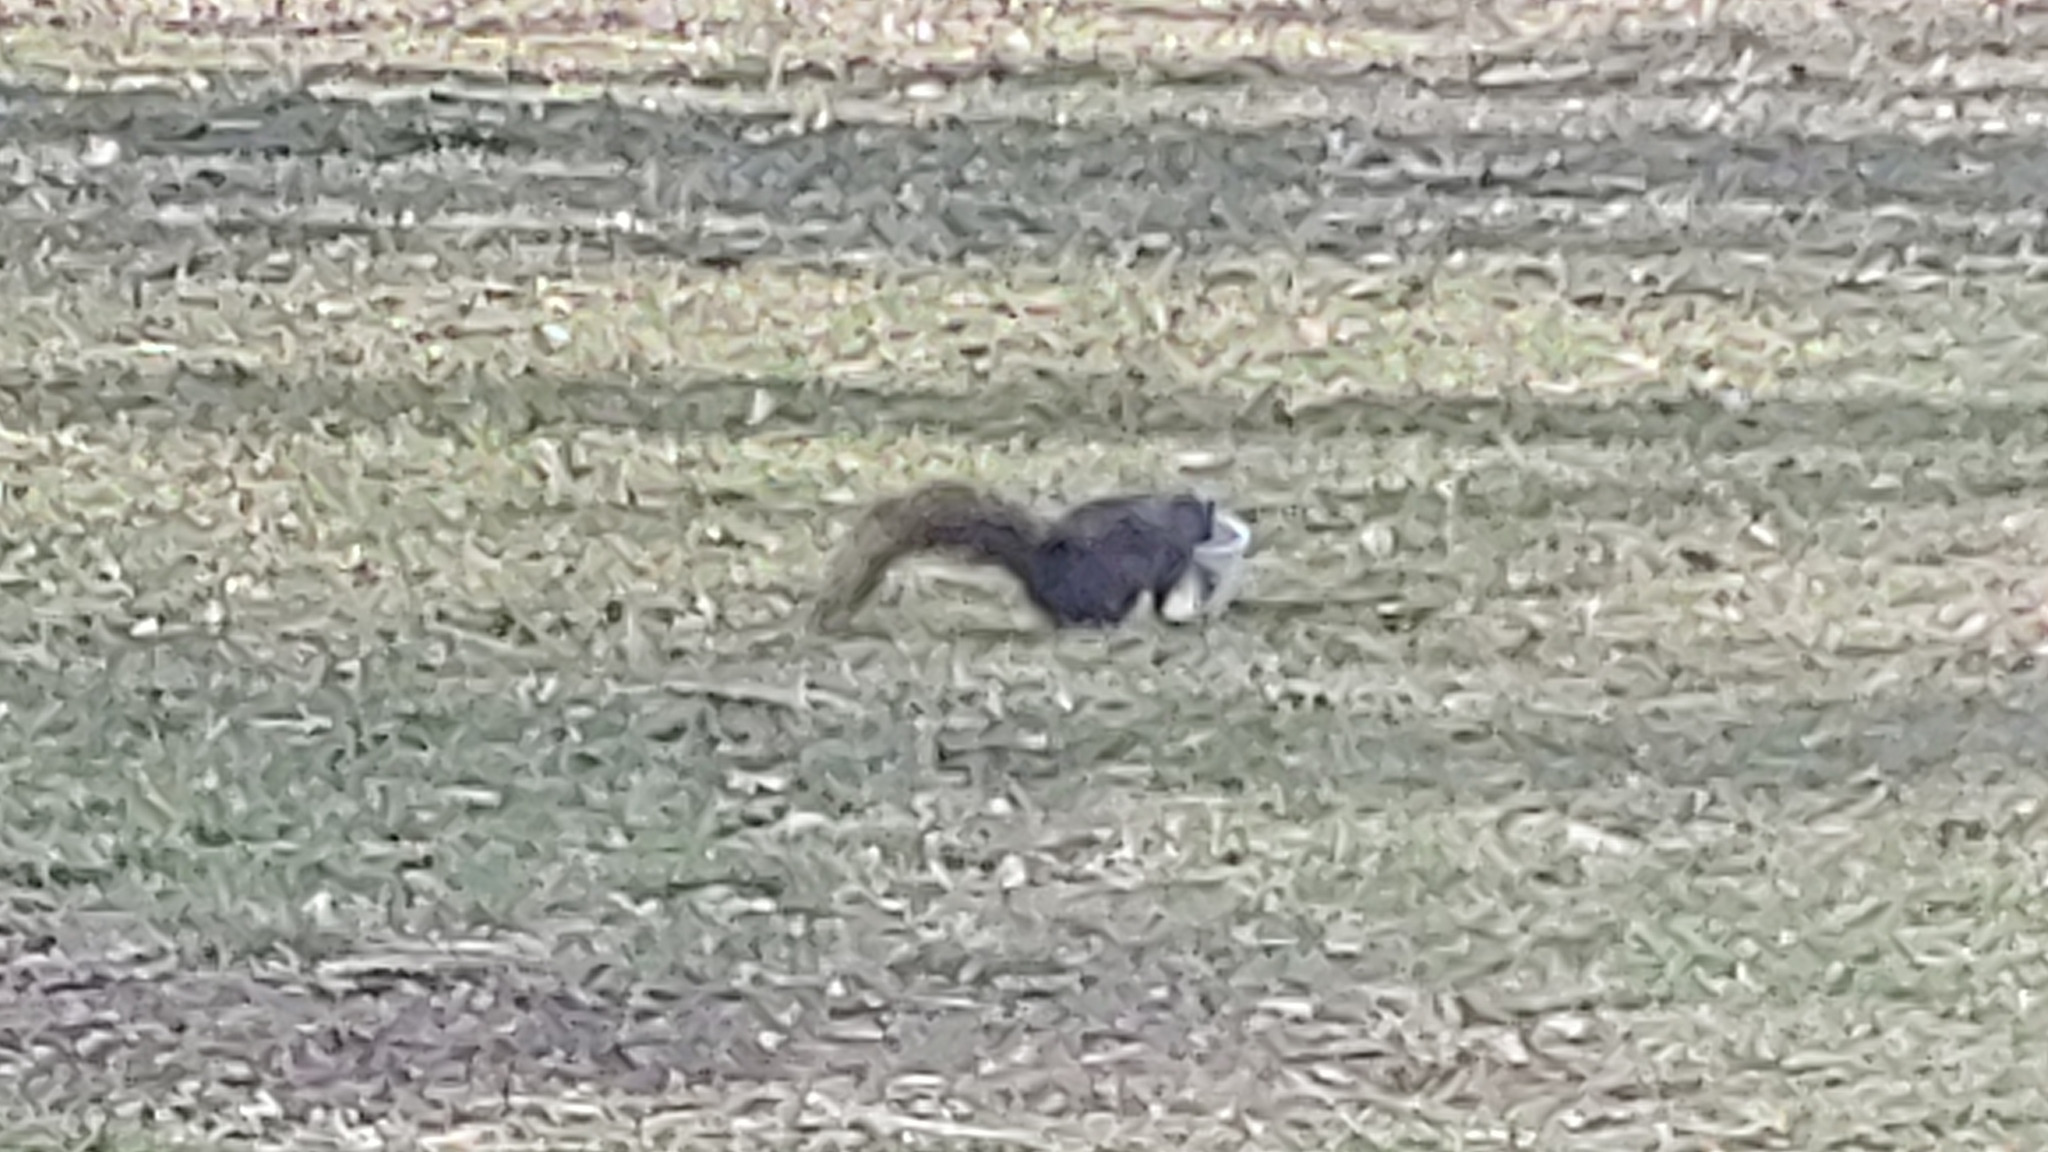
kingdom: Animalia
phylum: Chordata
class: Mammalia
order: Rodentia
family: Sciuridae
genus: Sciurus
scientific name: Sciurus carolinensis
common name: Eastern gray squirrel
